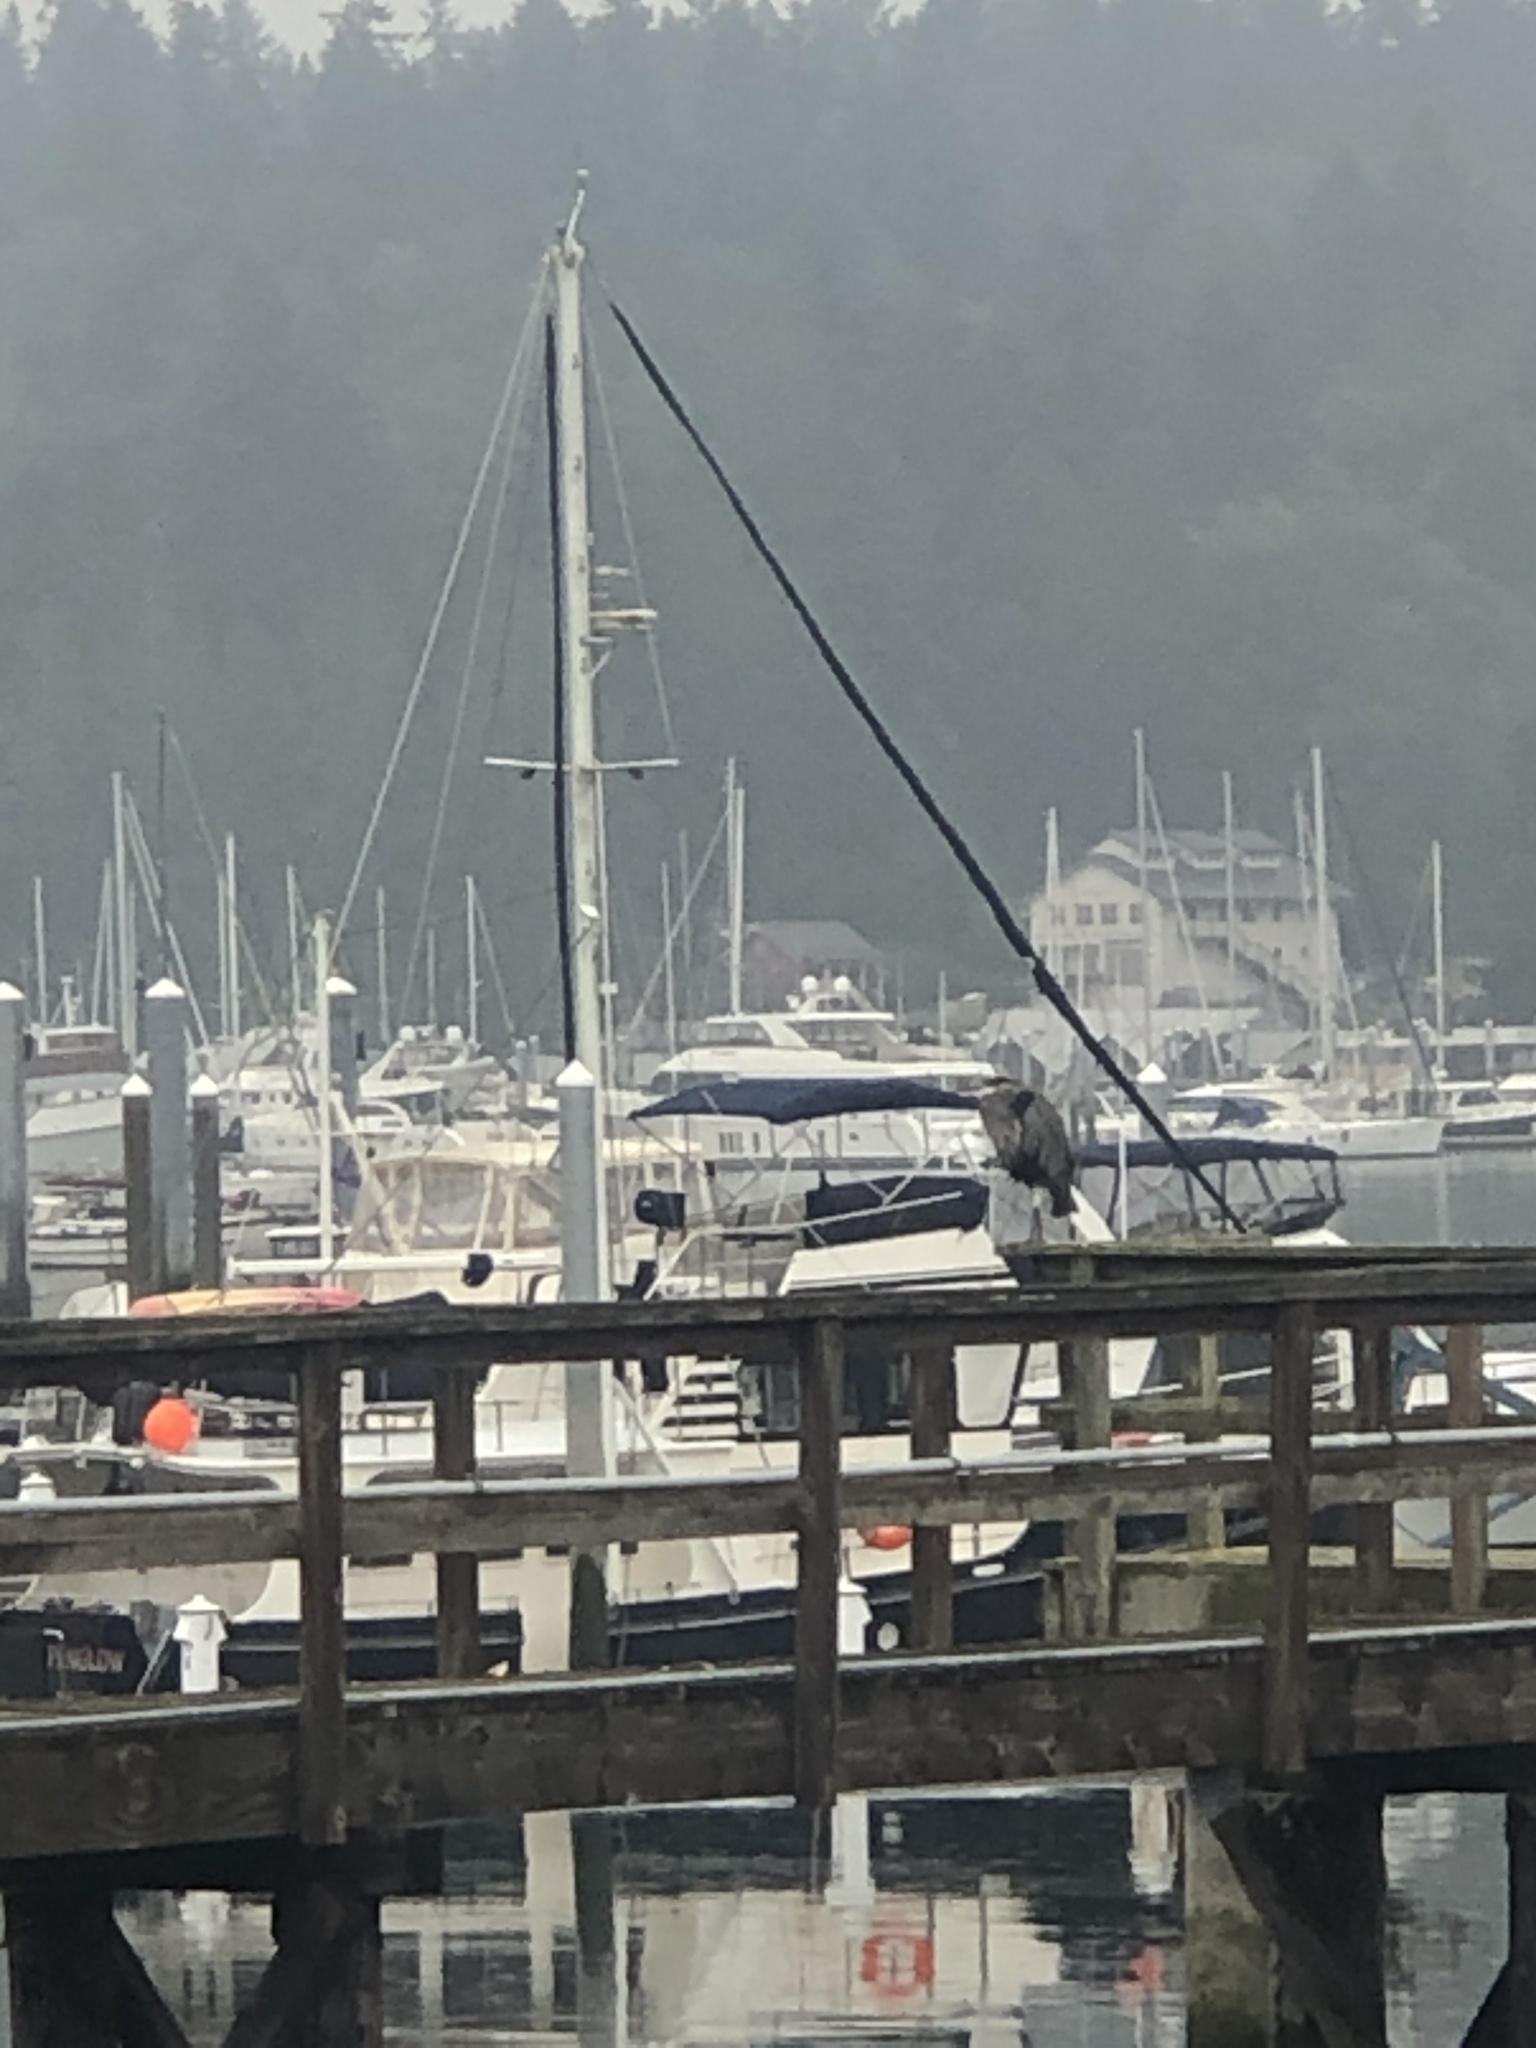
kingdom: Animalia
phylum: Chordata
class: Aves
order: Pelecaniformes
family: Ardeidae
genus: Ardea
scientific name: Ardea herodias
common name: Great blue heron
